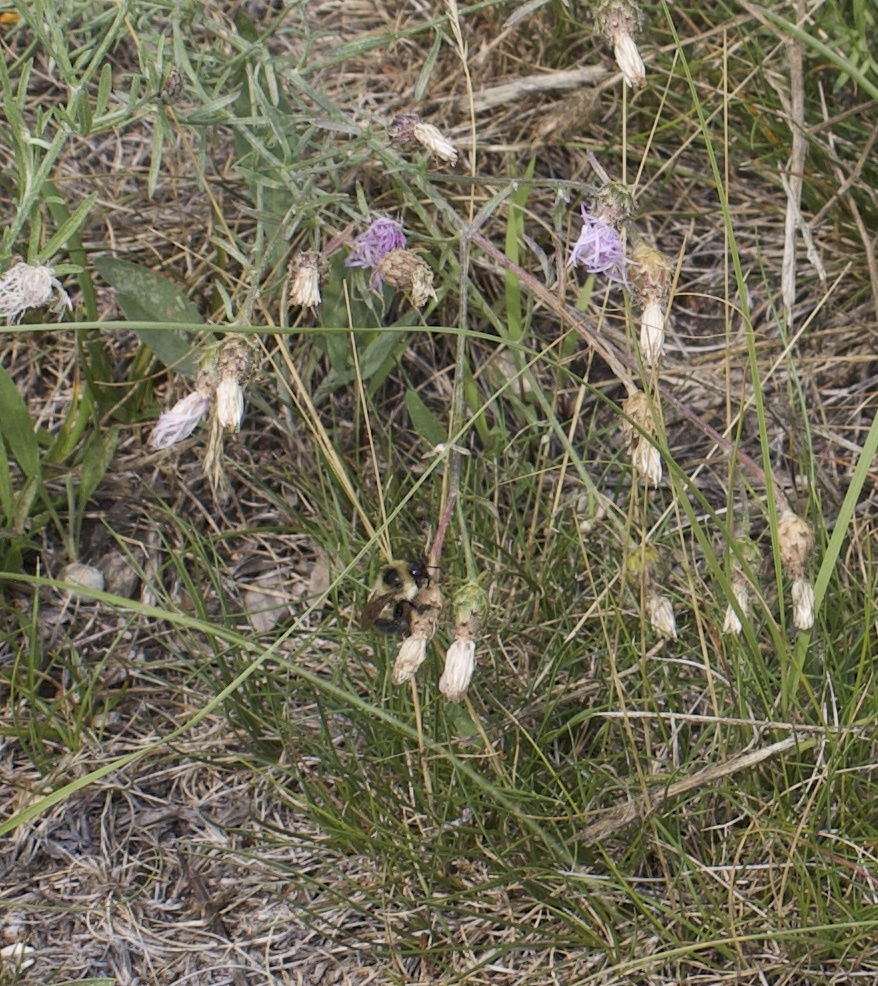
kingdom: Animalia
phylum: Arthropoda
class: Insecta
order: Hymenoptera
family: Apidae
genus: Bombus
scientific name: Bombus rufocinctus
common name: Red-belted bumble bee
